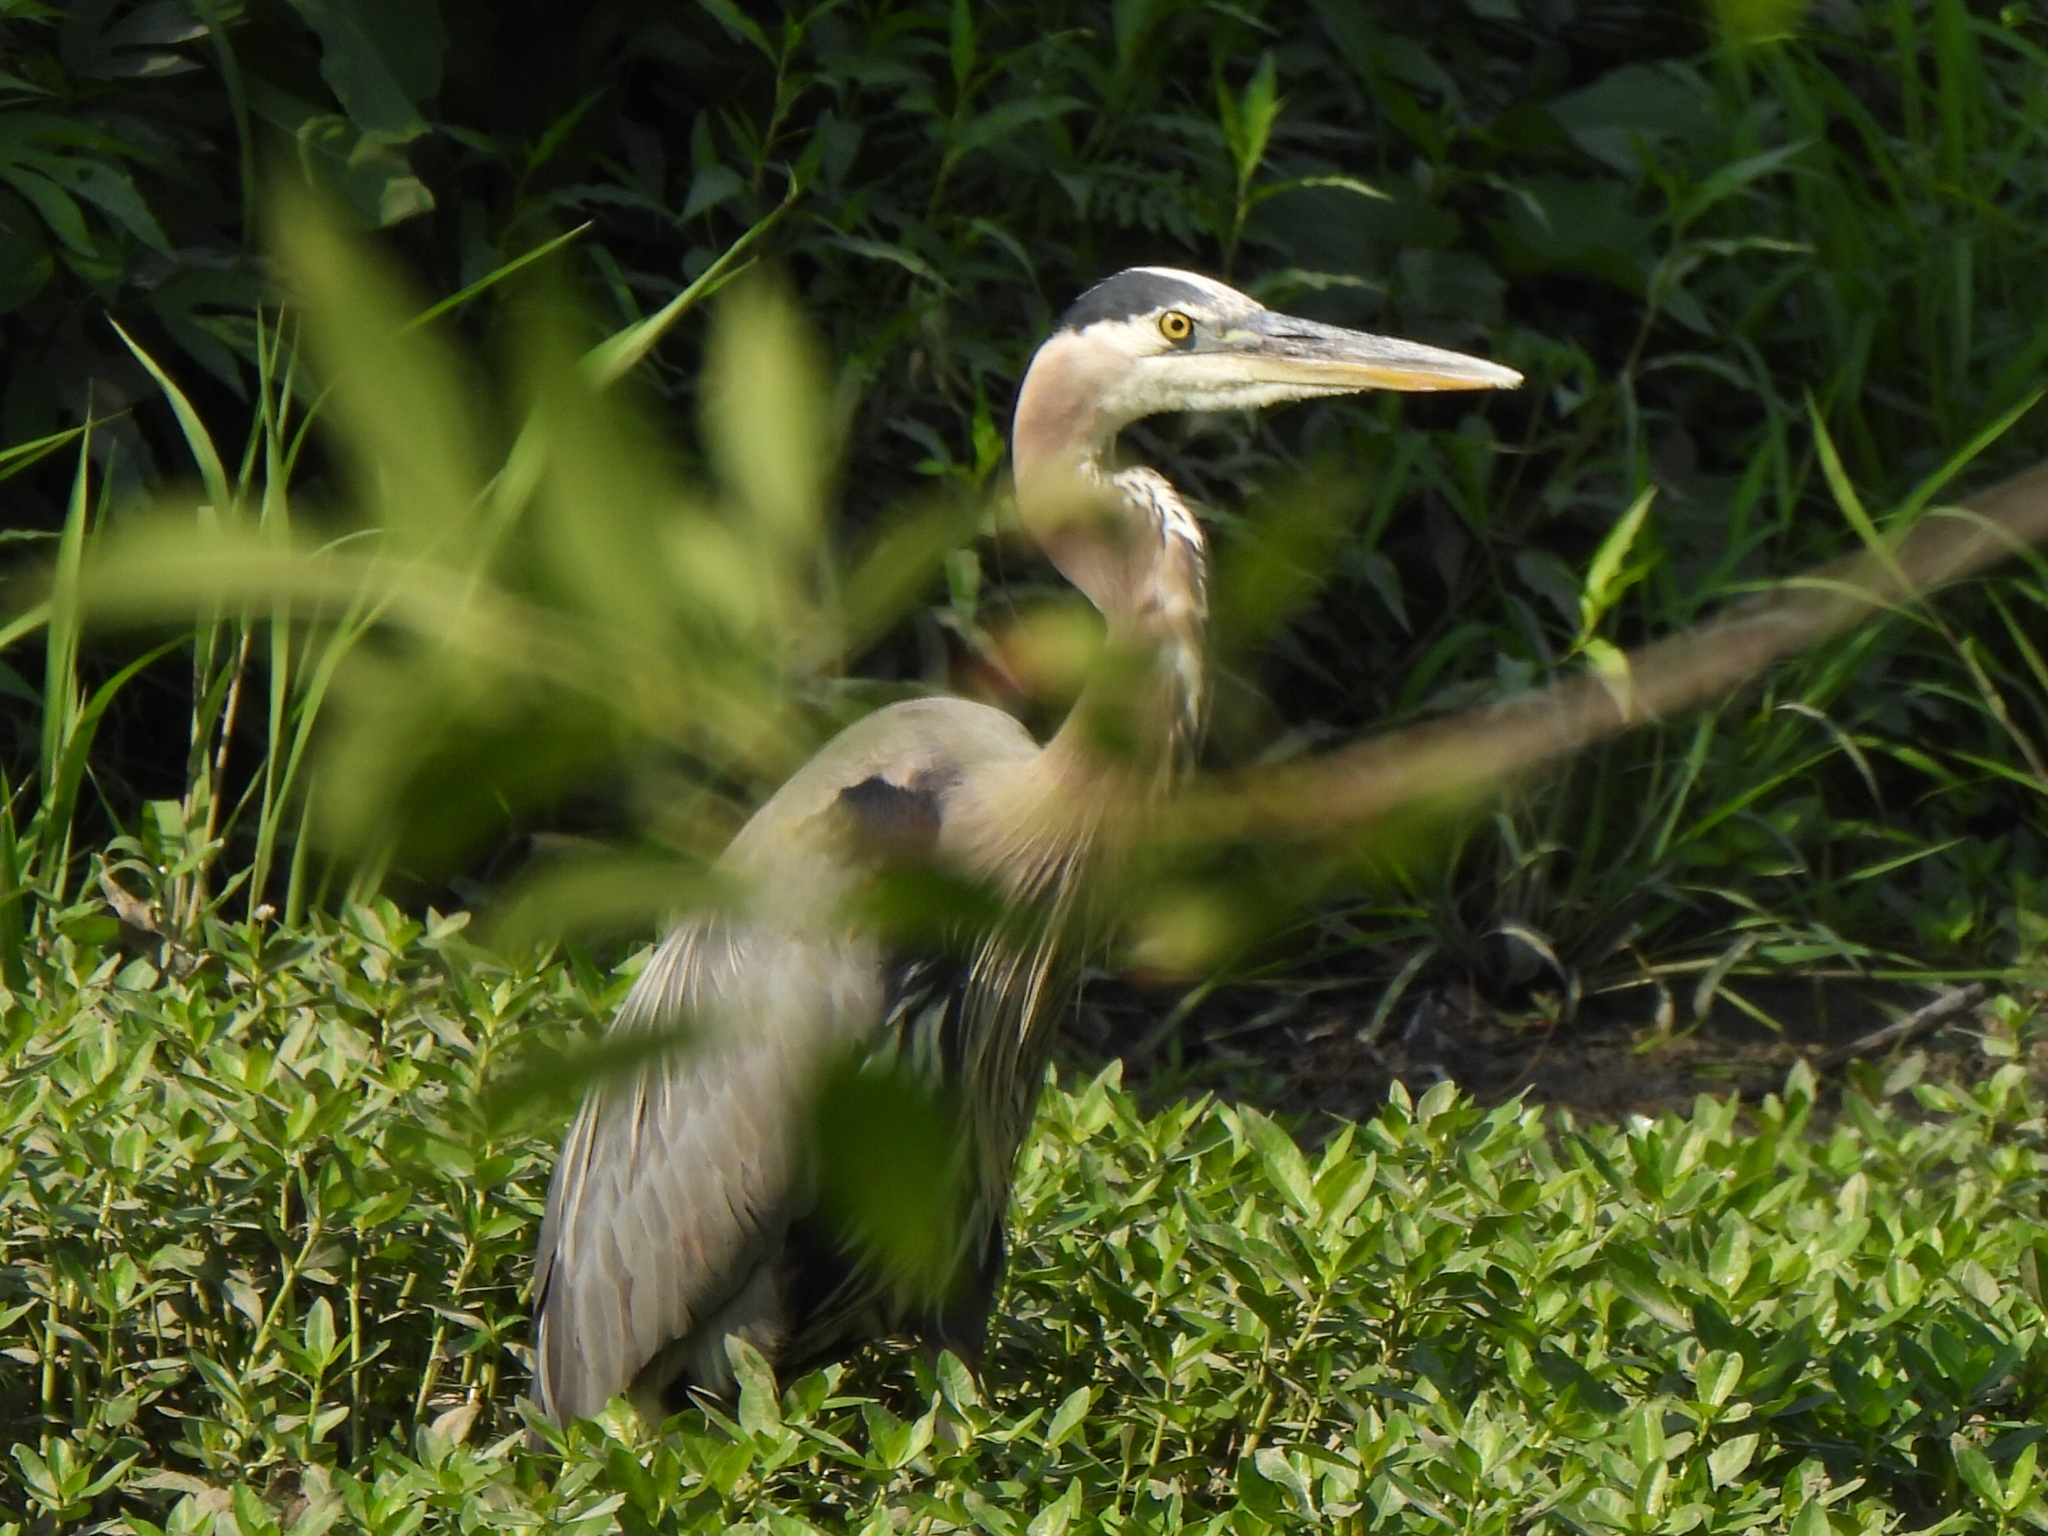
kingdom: Animalia
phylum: Chordata
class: Aves
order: Pelecaniformes
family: Ardeidae
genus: Ardea
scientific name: Ardea herodias
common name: Great blue heron
